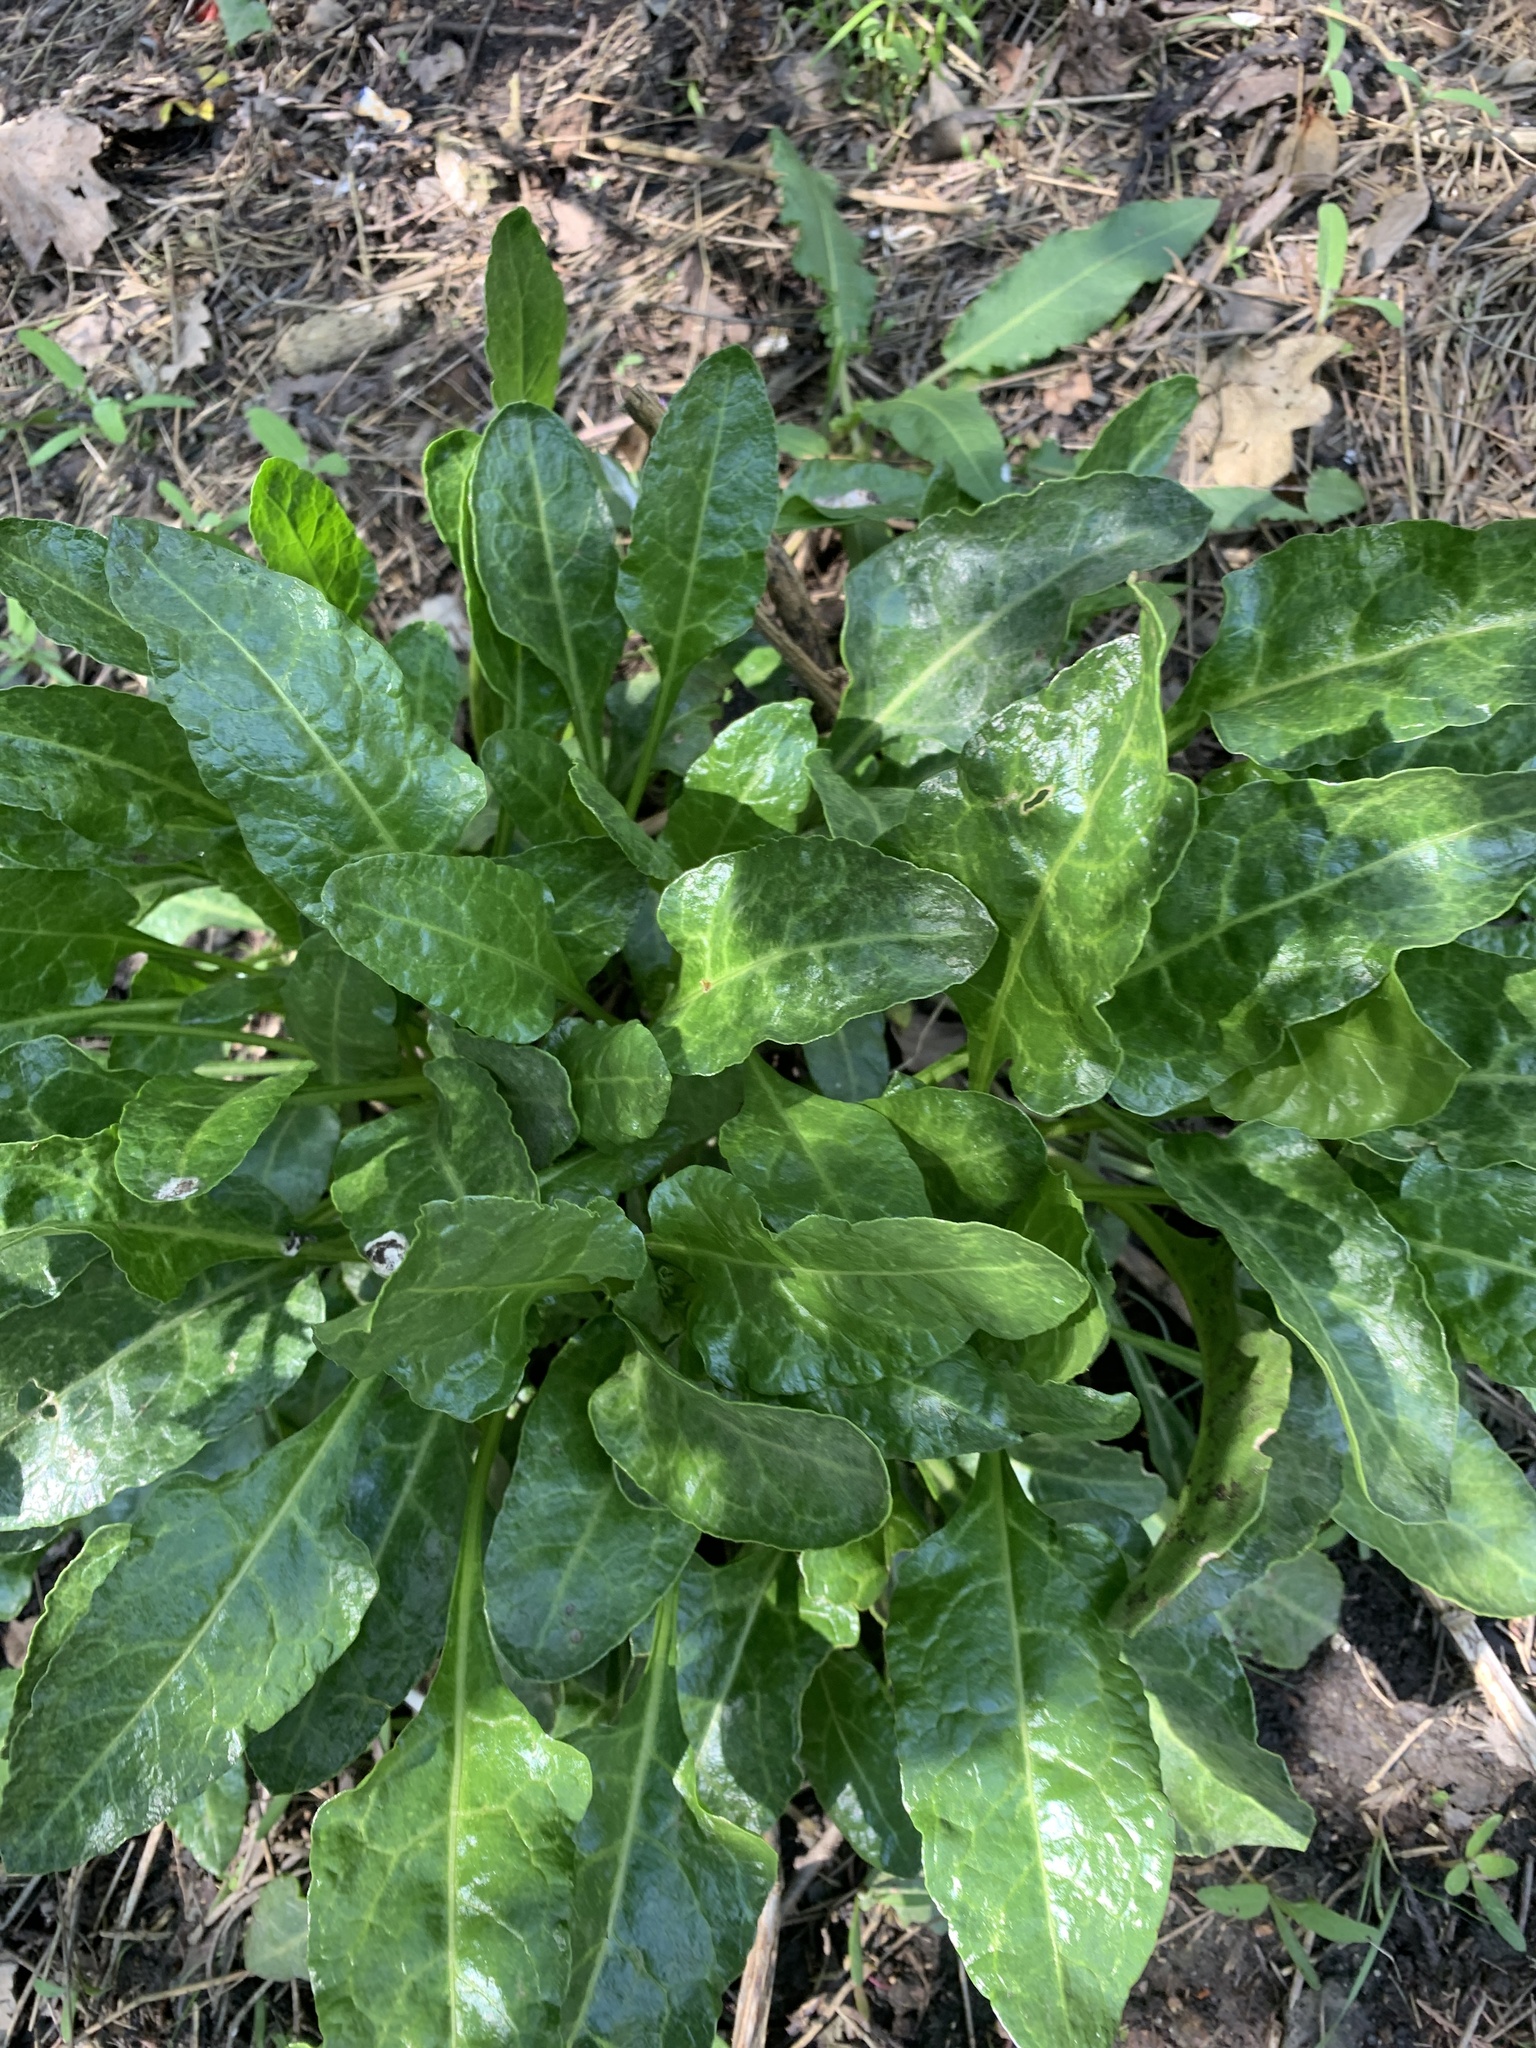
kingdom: Plantae
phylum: Tracheophyta
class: Magnoliopsida
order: Caryophyllales
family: Amaranthaceae
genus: Beta
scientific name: Beta vulgaris
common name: Beet
